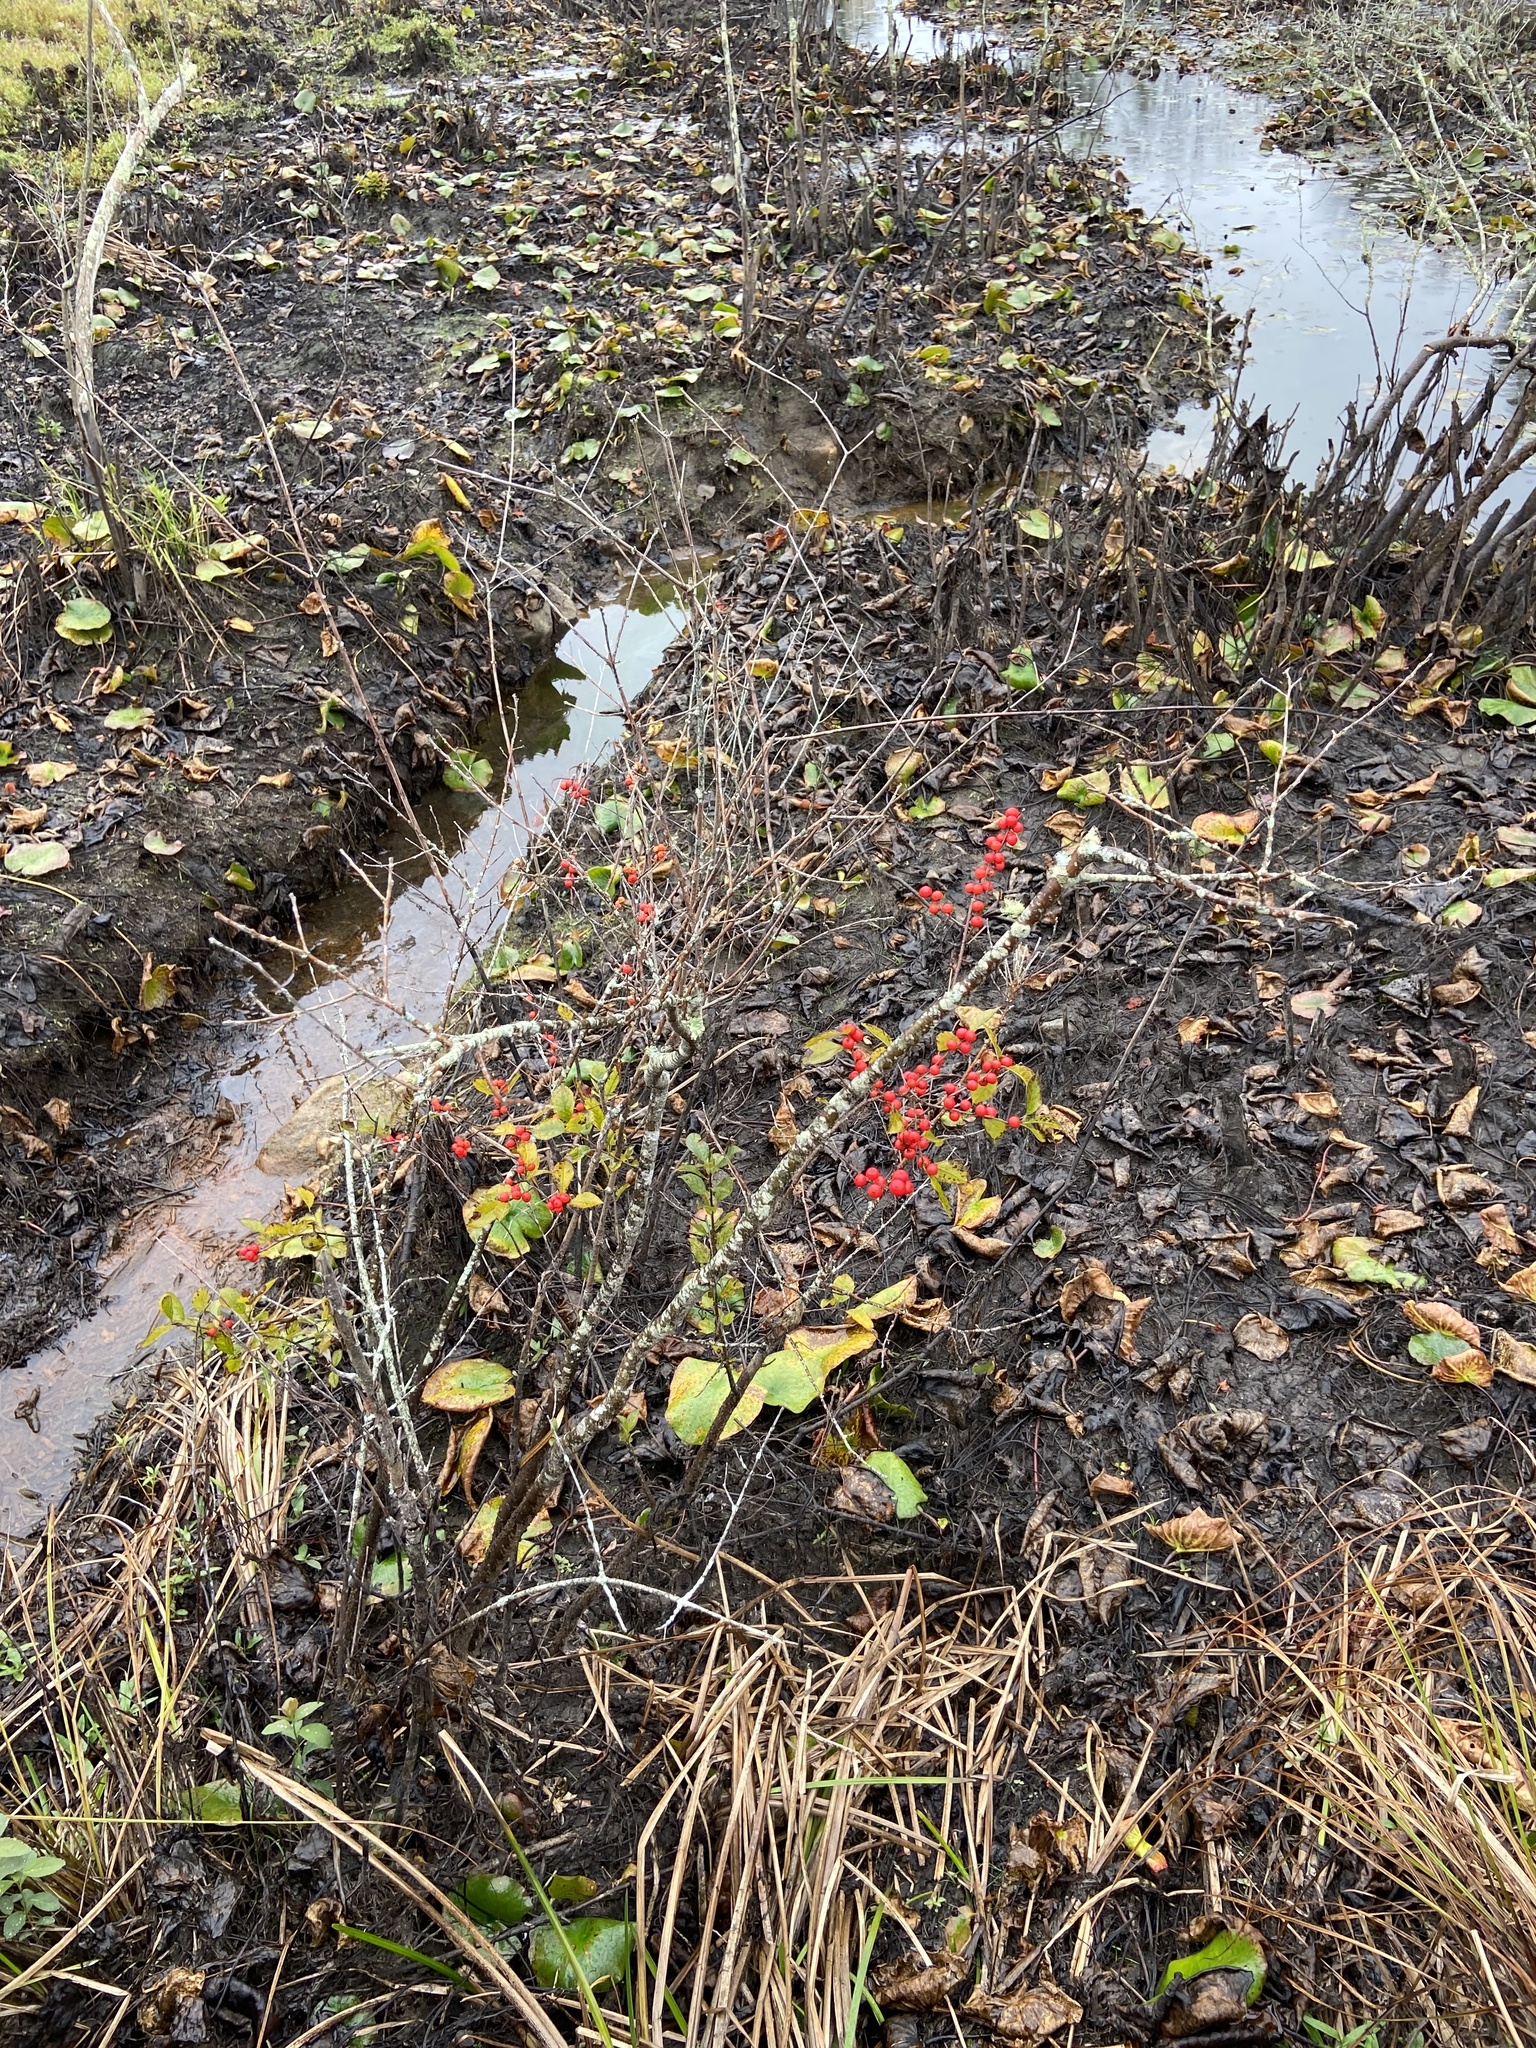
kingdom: Plantae
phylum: Tracheophyta
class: Magnoliopsida
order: Aquifoliales
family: Aquifoliaceae
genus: Ilex
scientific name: Ilex verticillata
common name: Virginia winterberry
